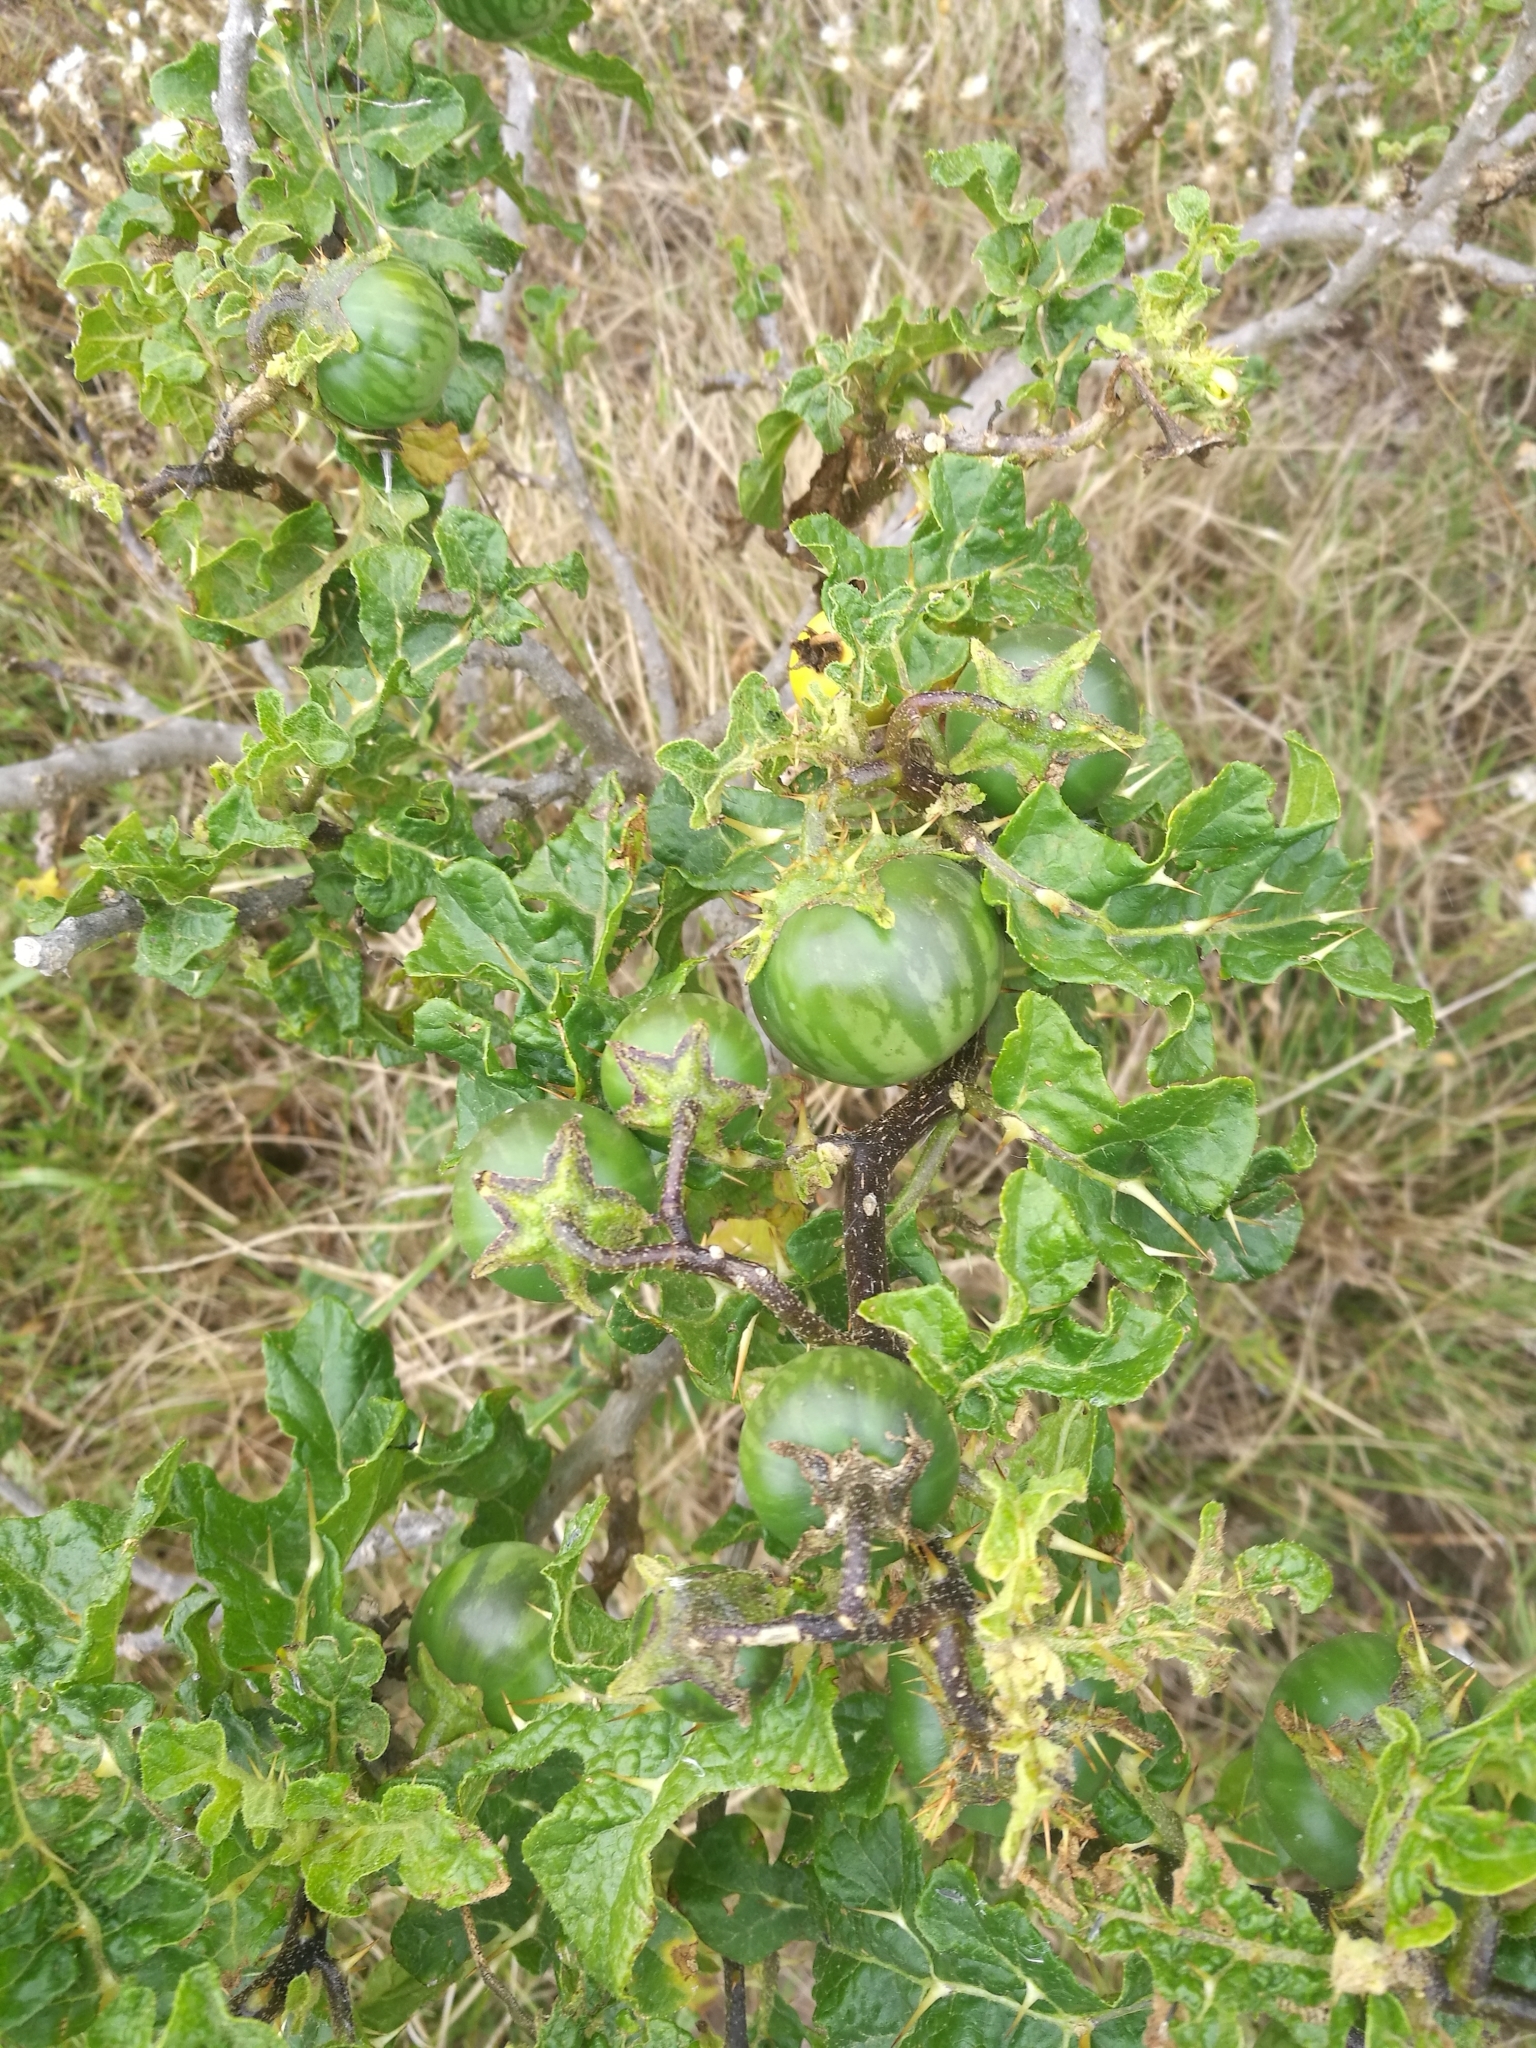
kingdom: Plantae
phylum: Tracheophyta
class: Magnoliopsida
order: Solanales
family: Solanaceae
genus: Solanum
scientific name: Solanum linnaeanum
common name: Nightshade
